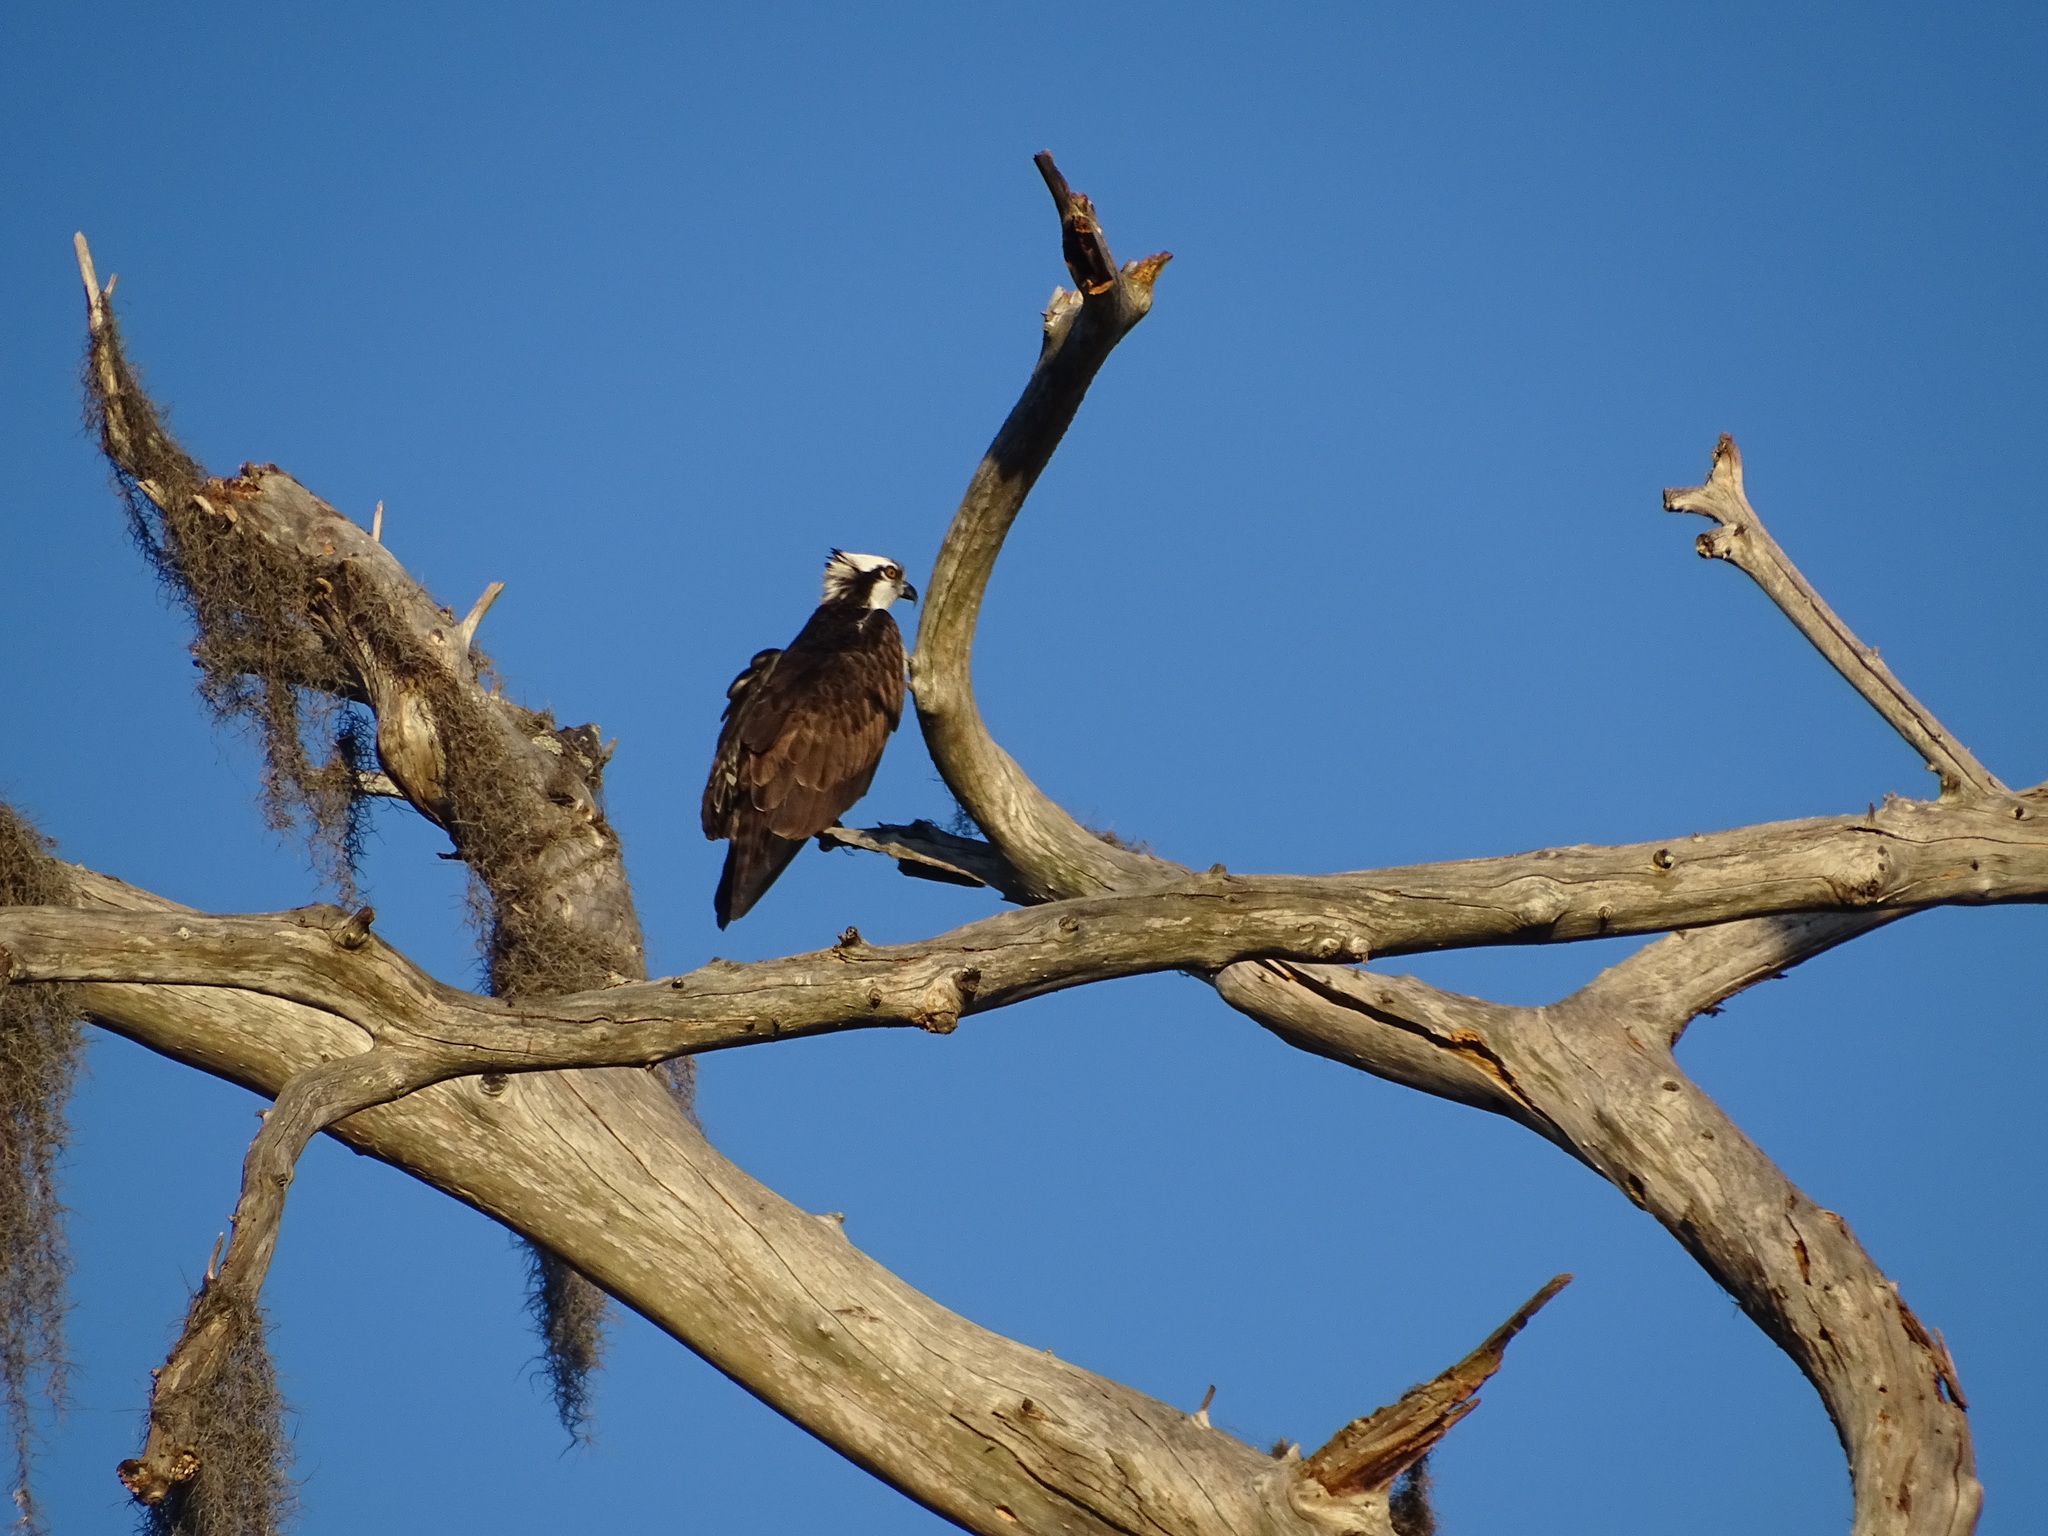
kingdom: Animalia
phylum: Chordata
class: Aves
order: Accipitriformes
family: Pandionidae
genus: Pandion
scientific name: Pandion haliaetus
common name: Osprey
